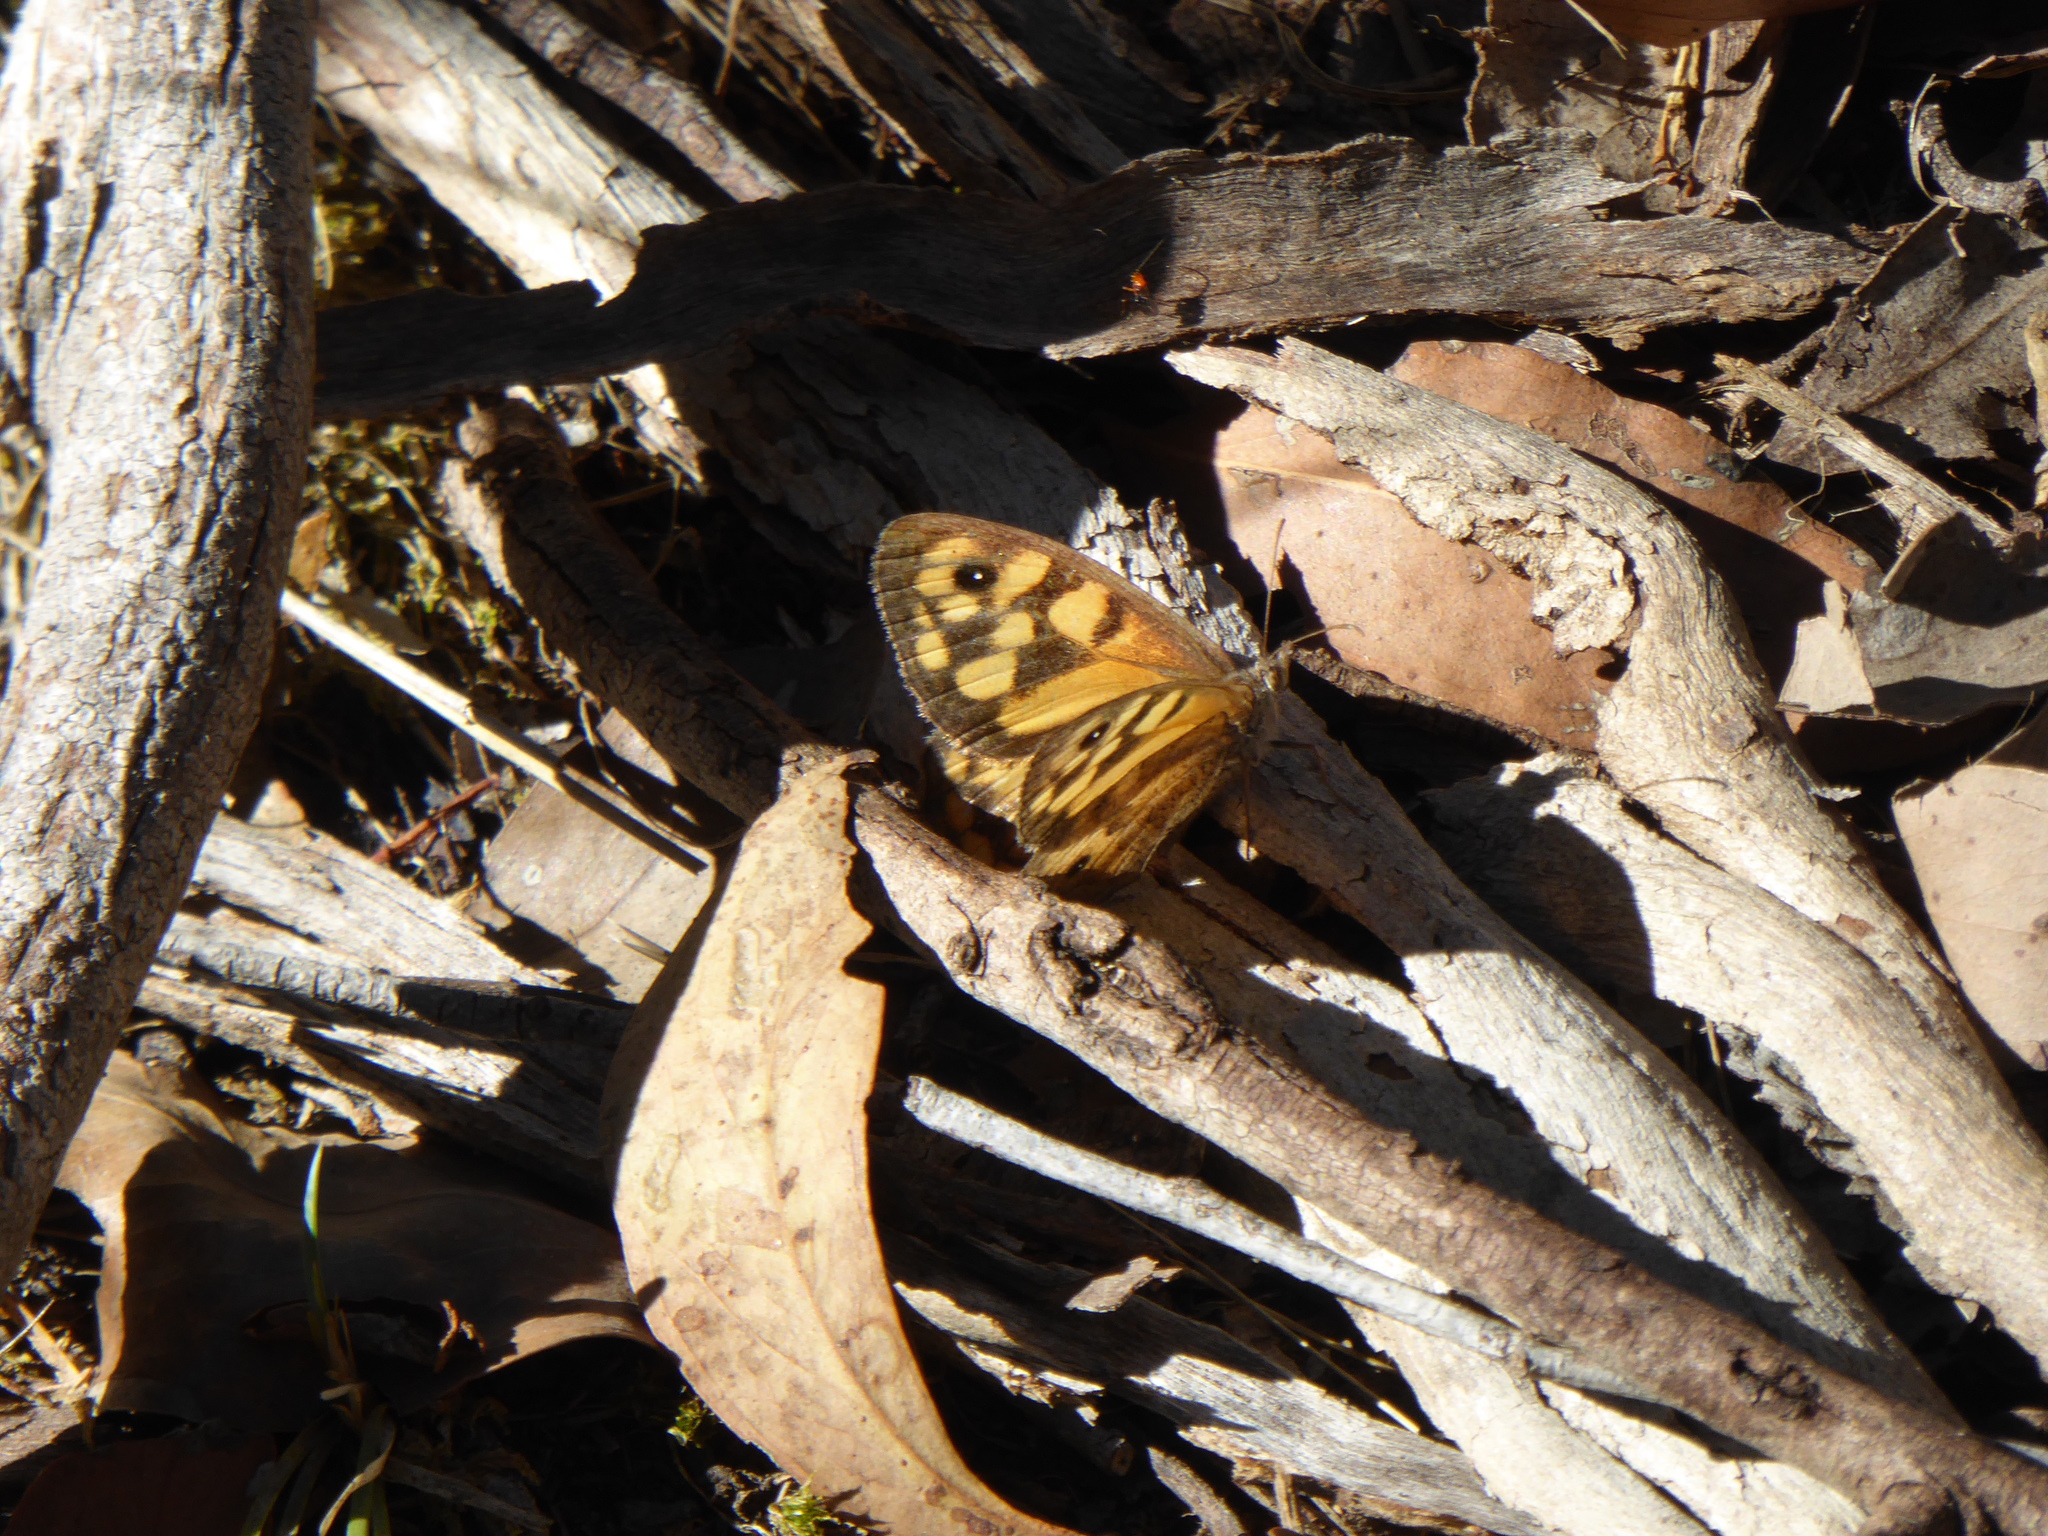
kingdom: Animalia
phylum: Arthropoda
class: Insecta
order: Lepidoptera
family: Nymphalidae
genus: Geitoneura
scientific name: Geitoneura klugii
